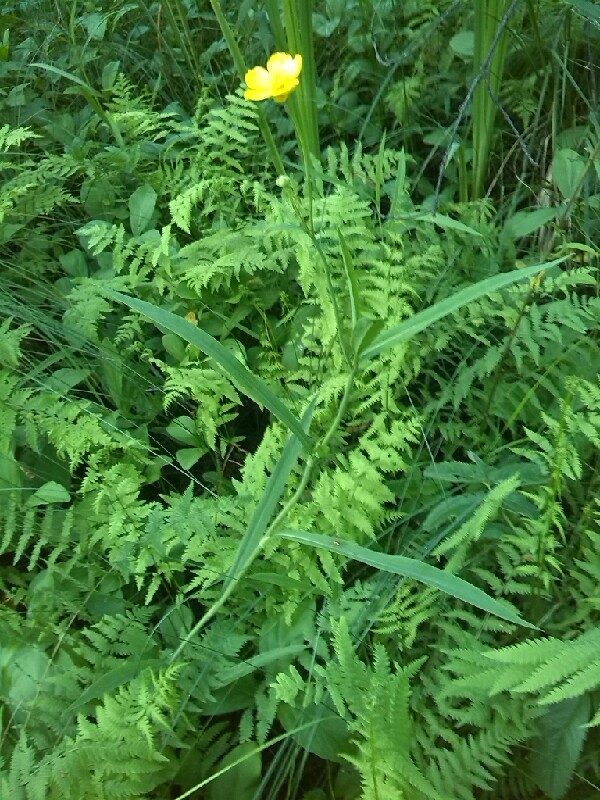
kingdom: Plantae
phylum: Tracheophyta
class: Magnoliopsida
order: Ranunculales
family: Ranunculaceae
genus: Ranunculus
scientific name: Ranunculus lingua
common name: Greater spearwort
